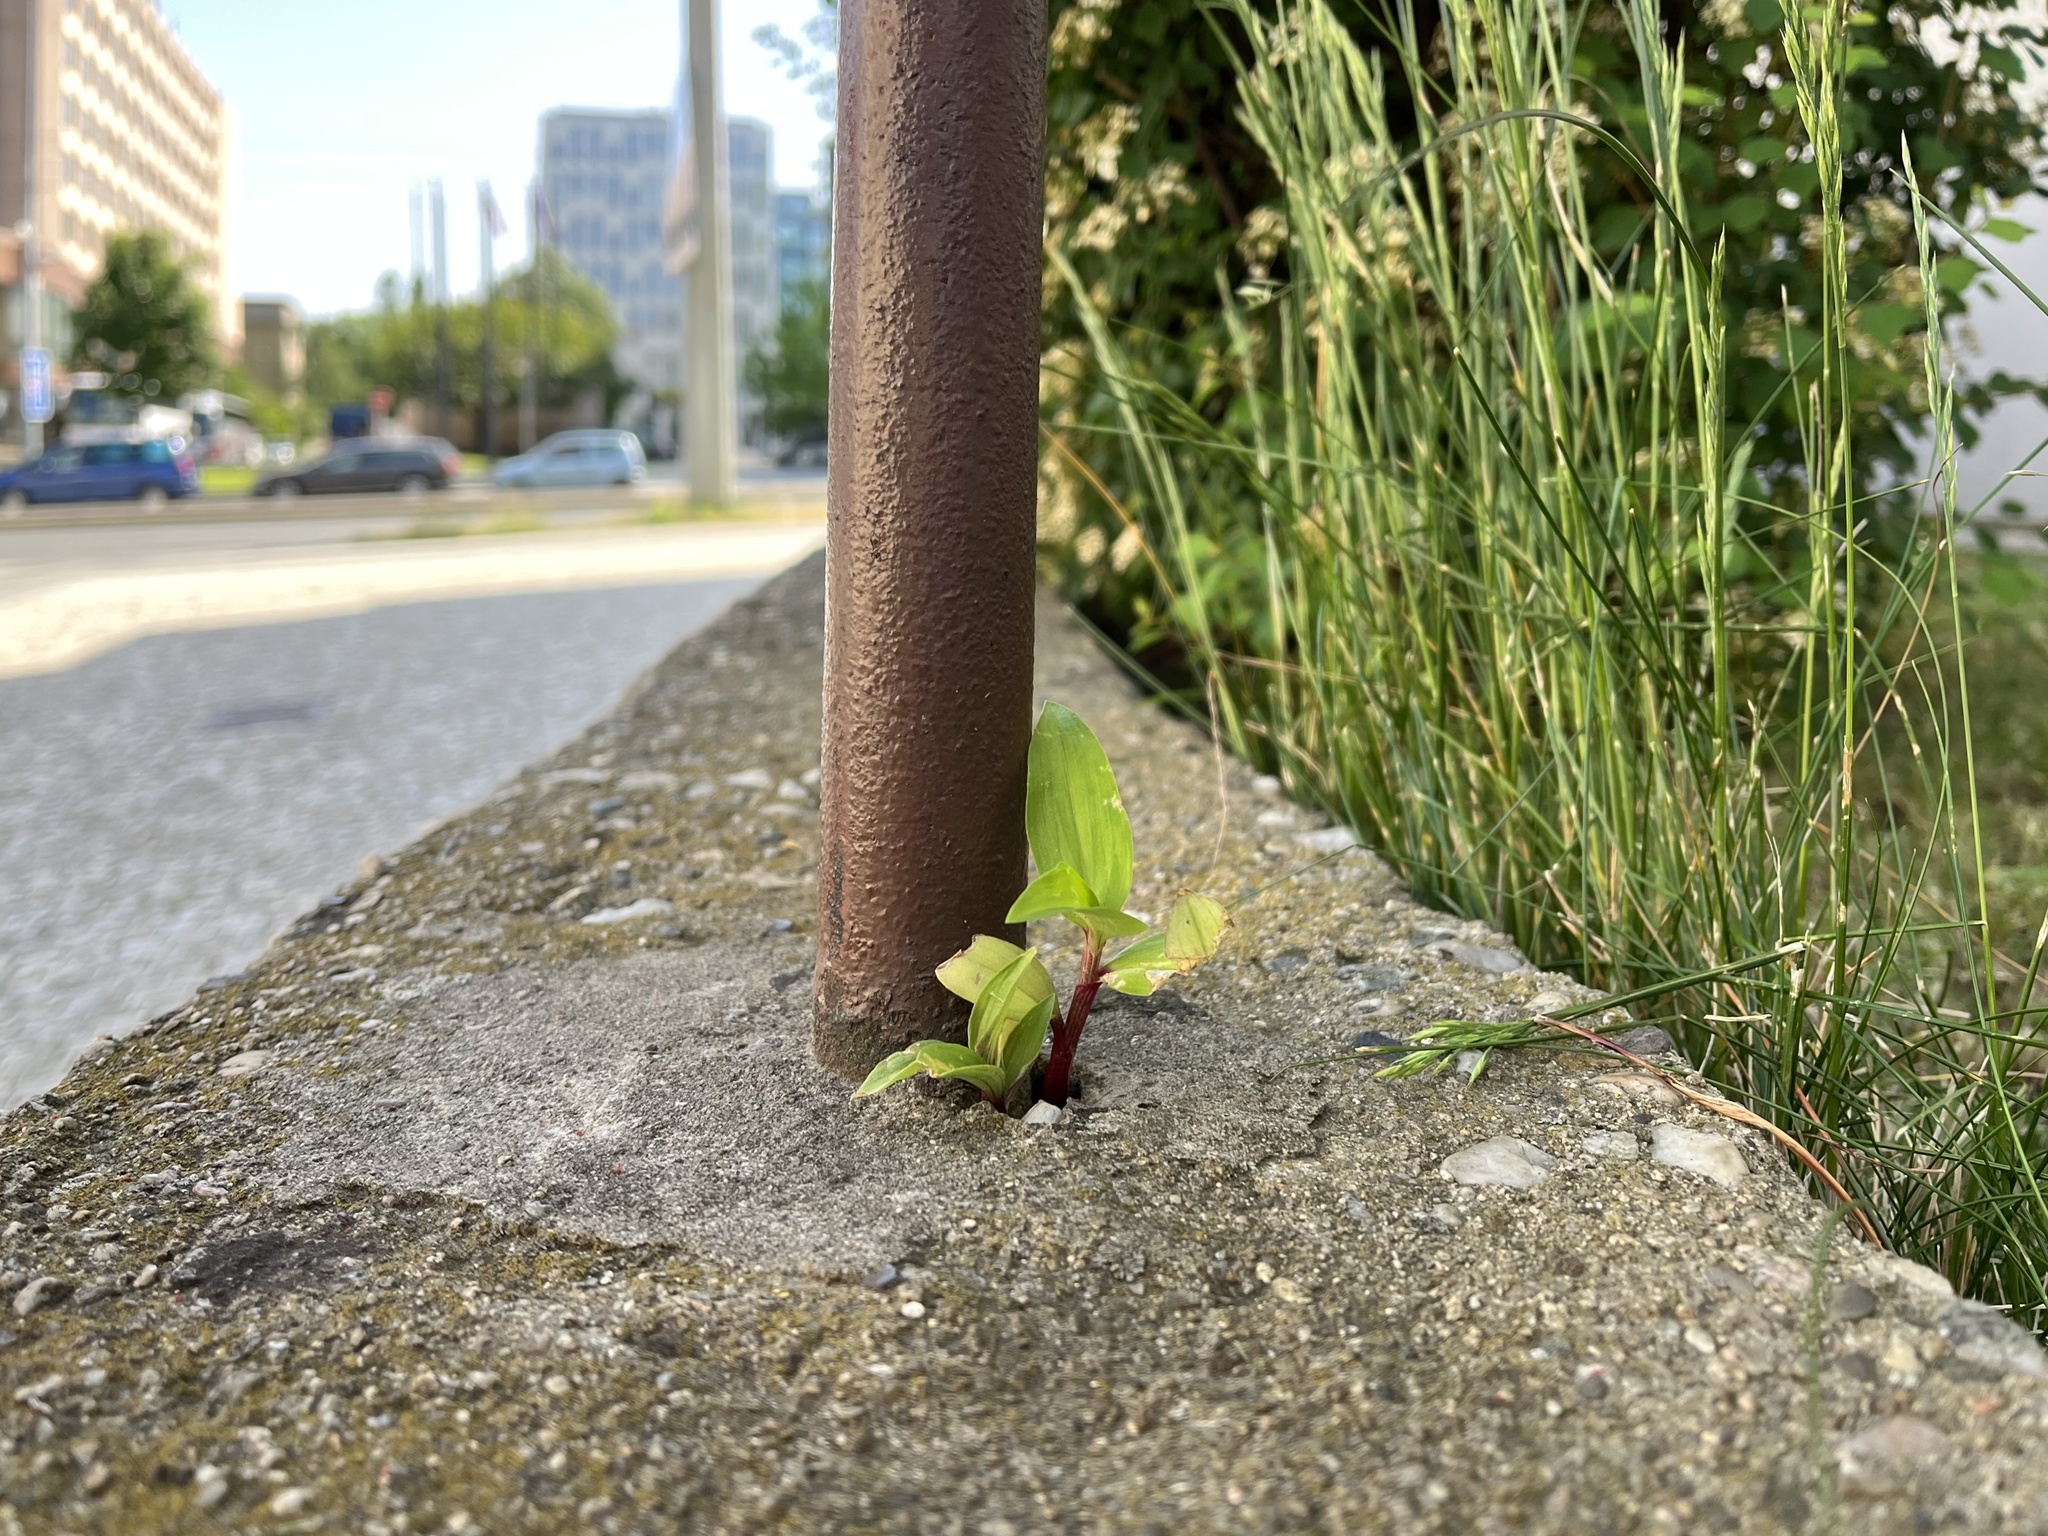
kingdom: Plantae
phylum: Tracheophyta
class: Liliopsida
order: Commelinales
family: Commelinaceae
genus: Commelina
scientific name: Commelina communis
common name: Asiatic dayflower
